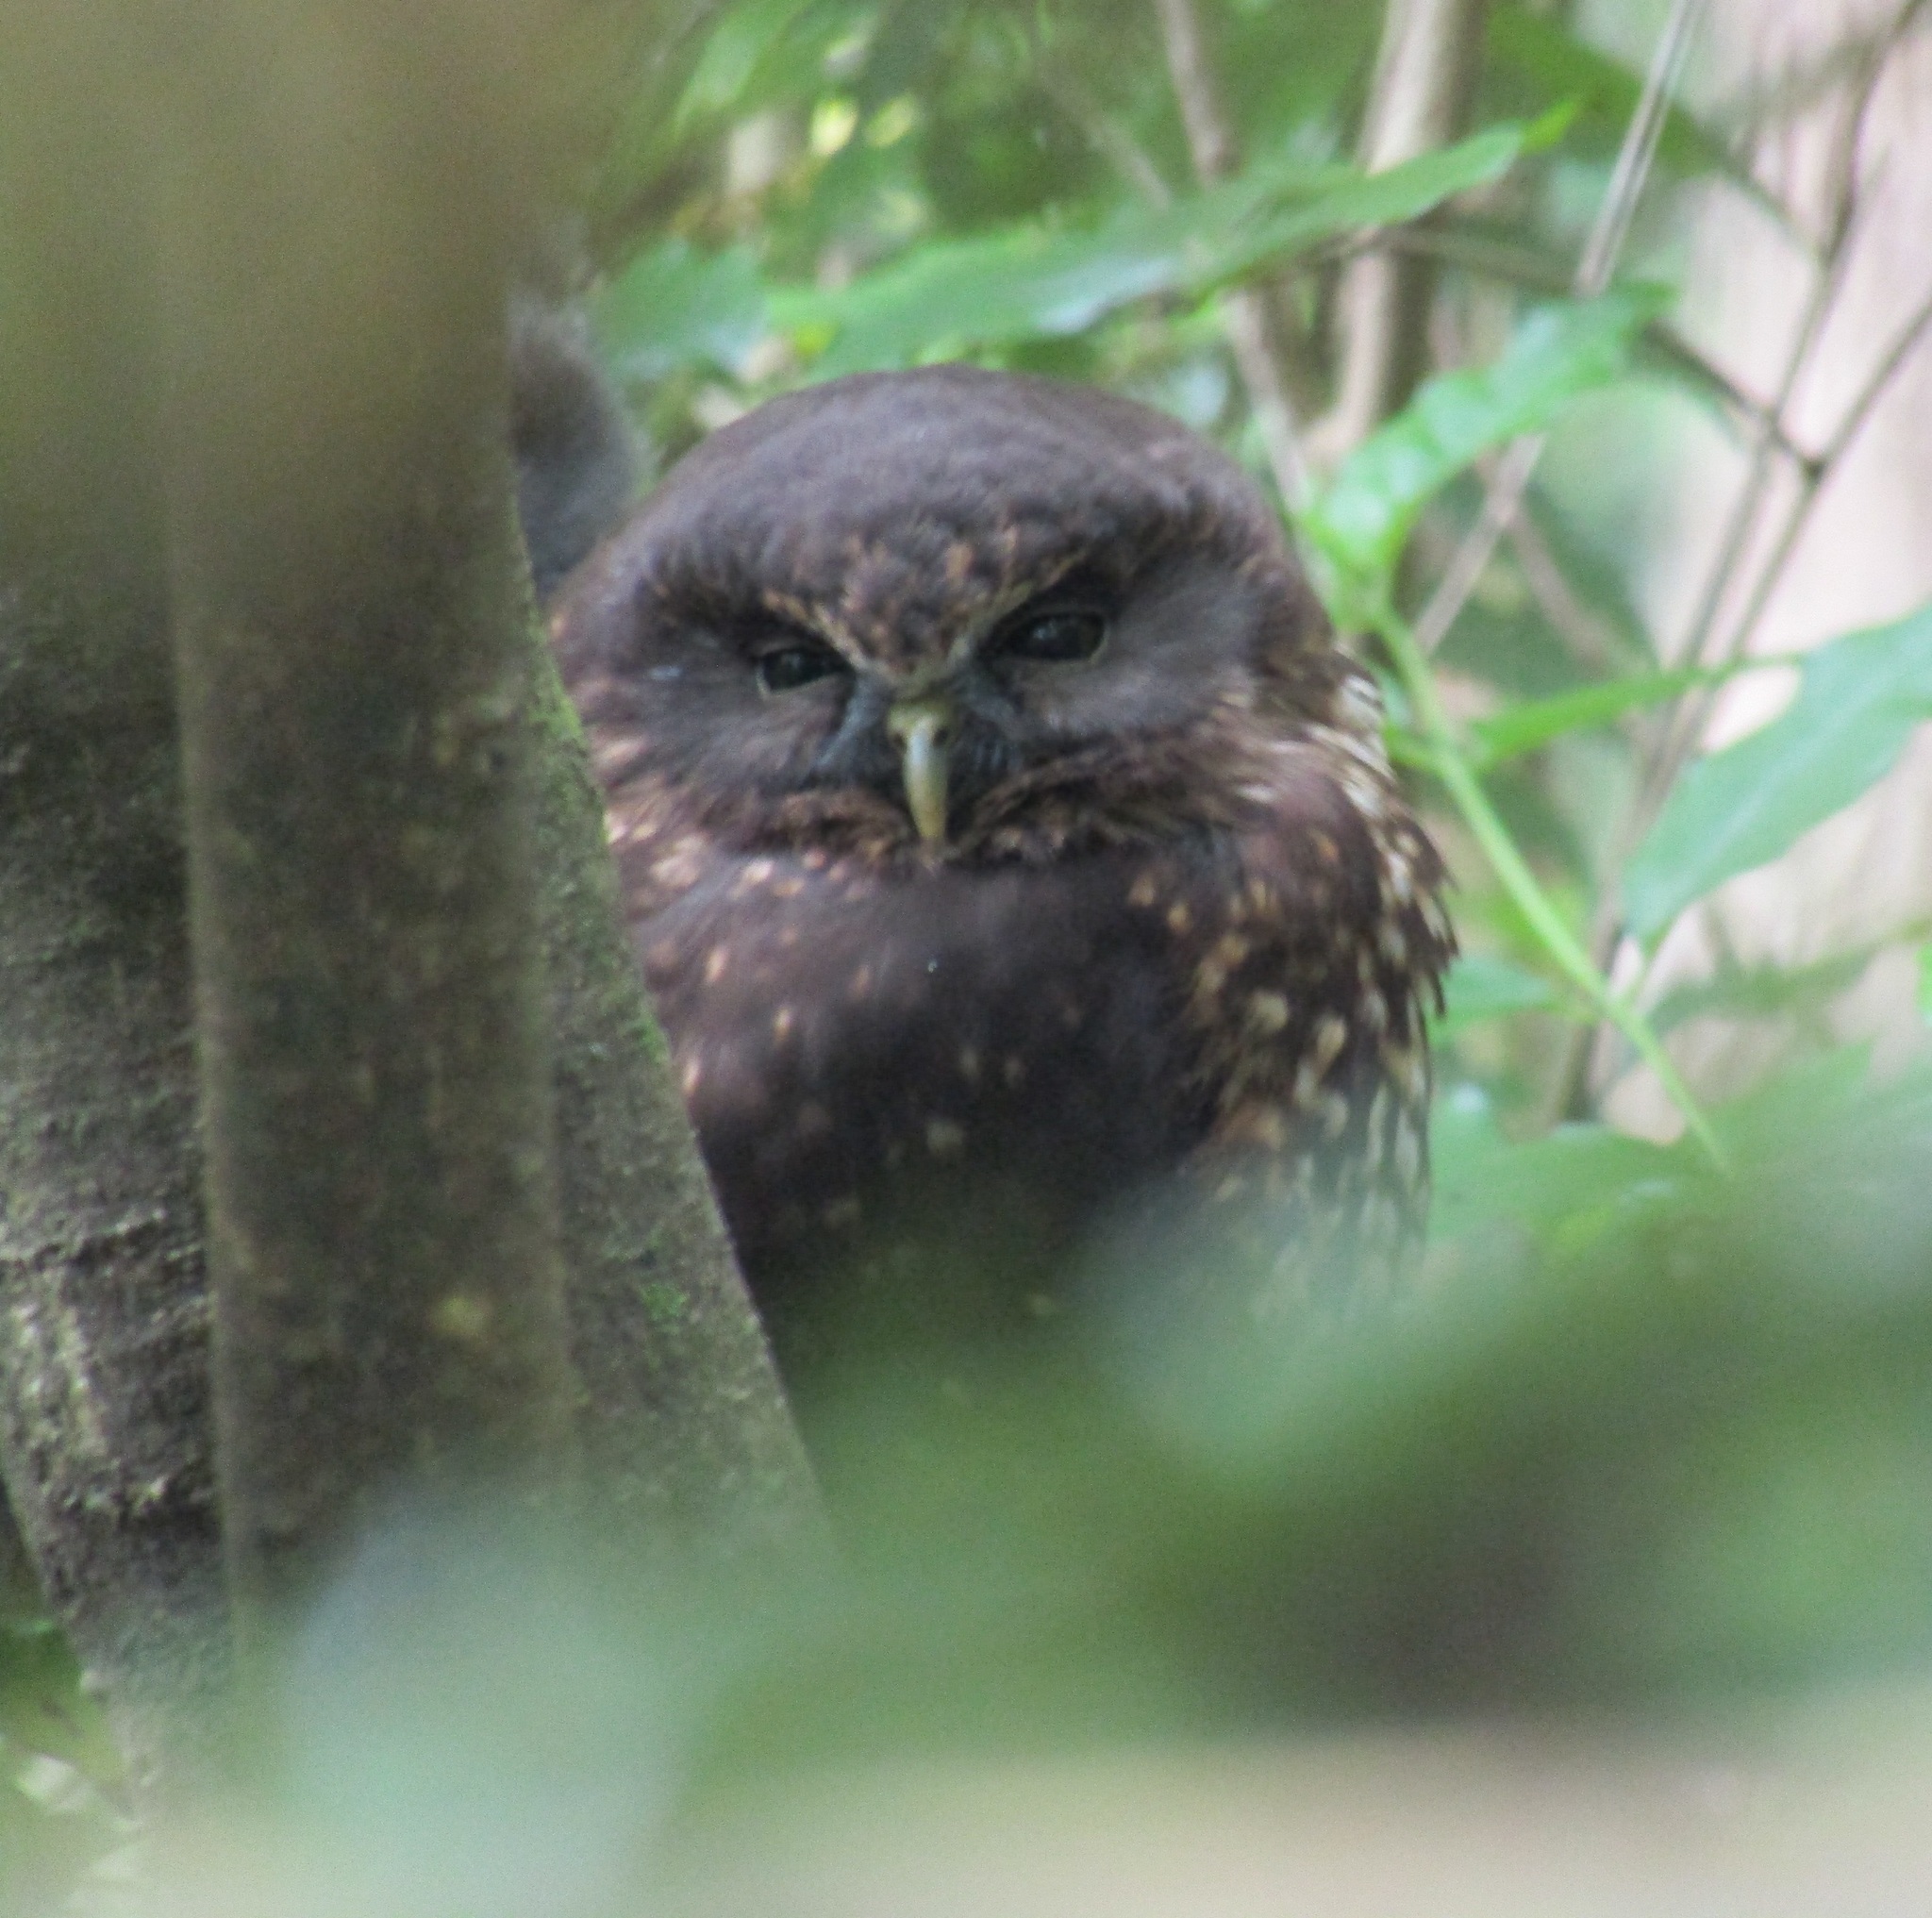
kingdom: Animalia
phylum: Chordata
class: Aves
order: Strigiformes
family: Strigidae
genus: Ninox
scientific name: Ninox novaeseelandiae
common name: Morepork
